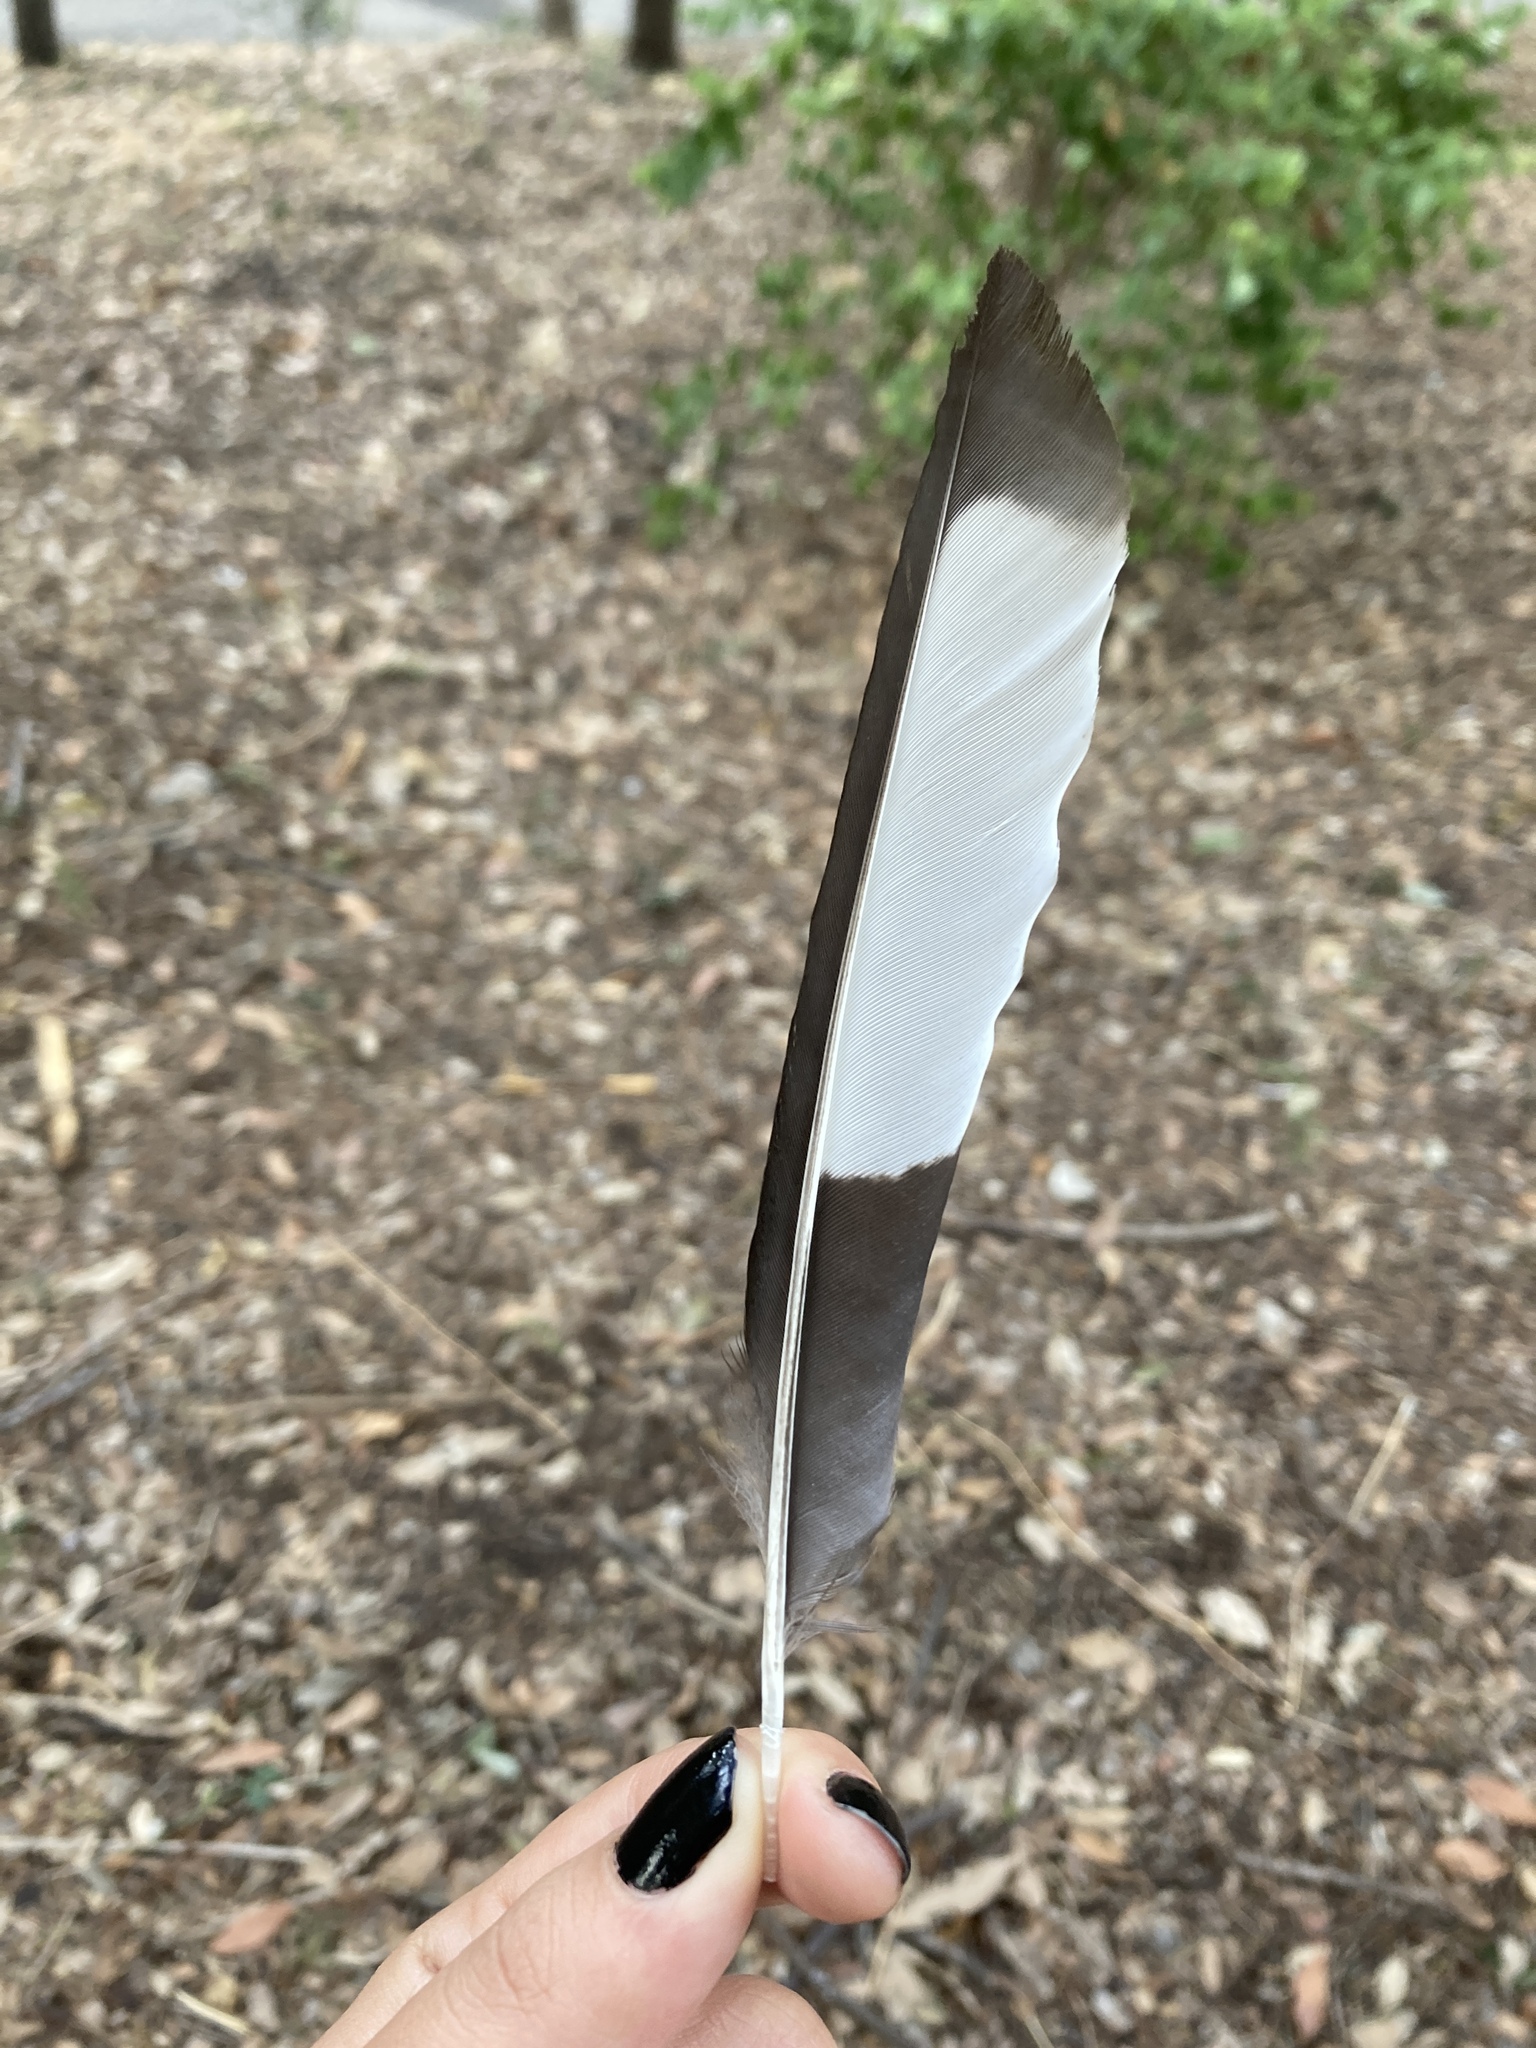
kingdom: Animalia
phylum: Chordata
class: Aves
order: Passeriformes
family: Corvidae
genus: Pica
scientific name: Pica pica
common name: Eurasian magpie
